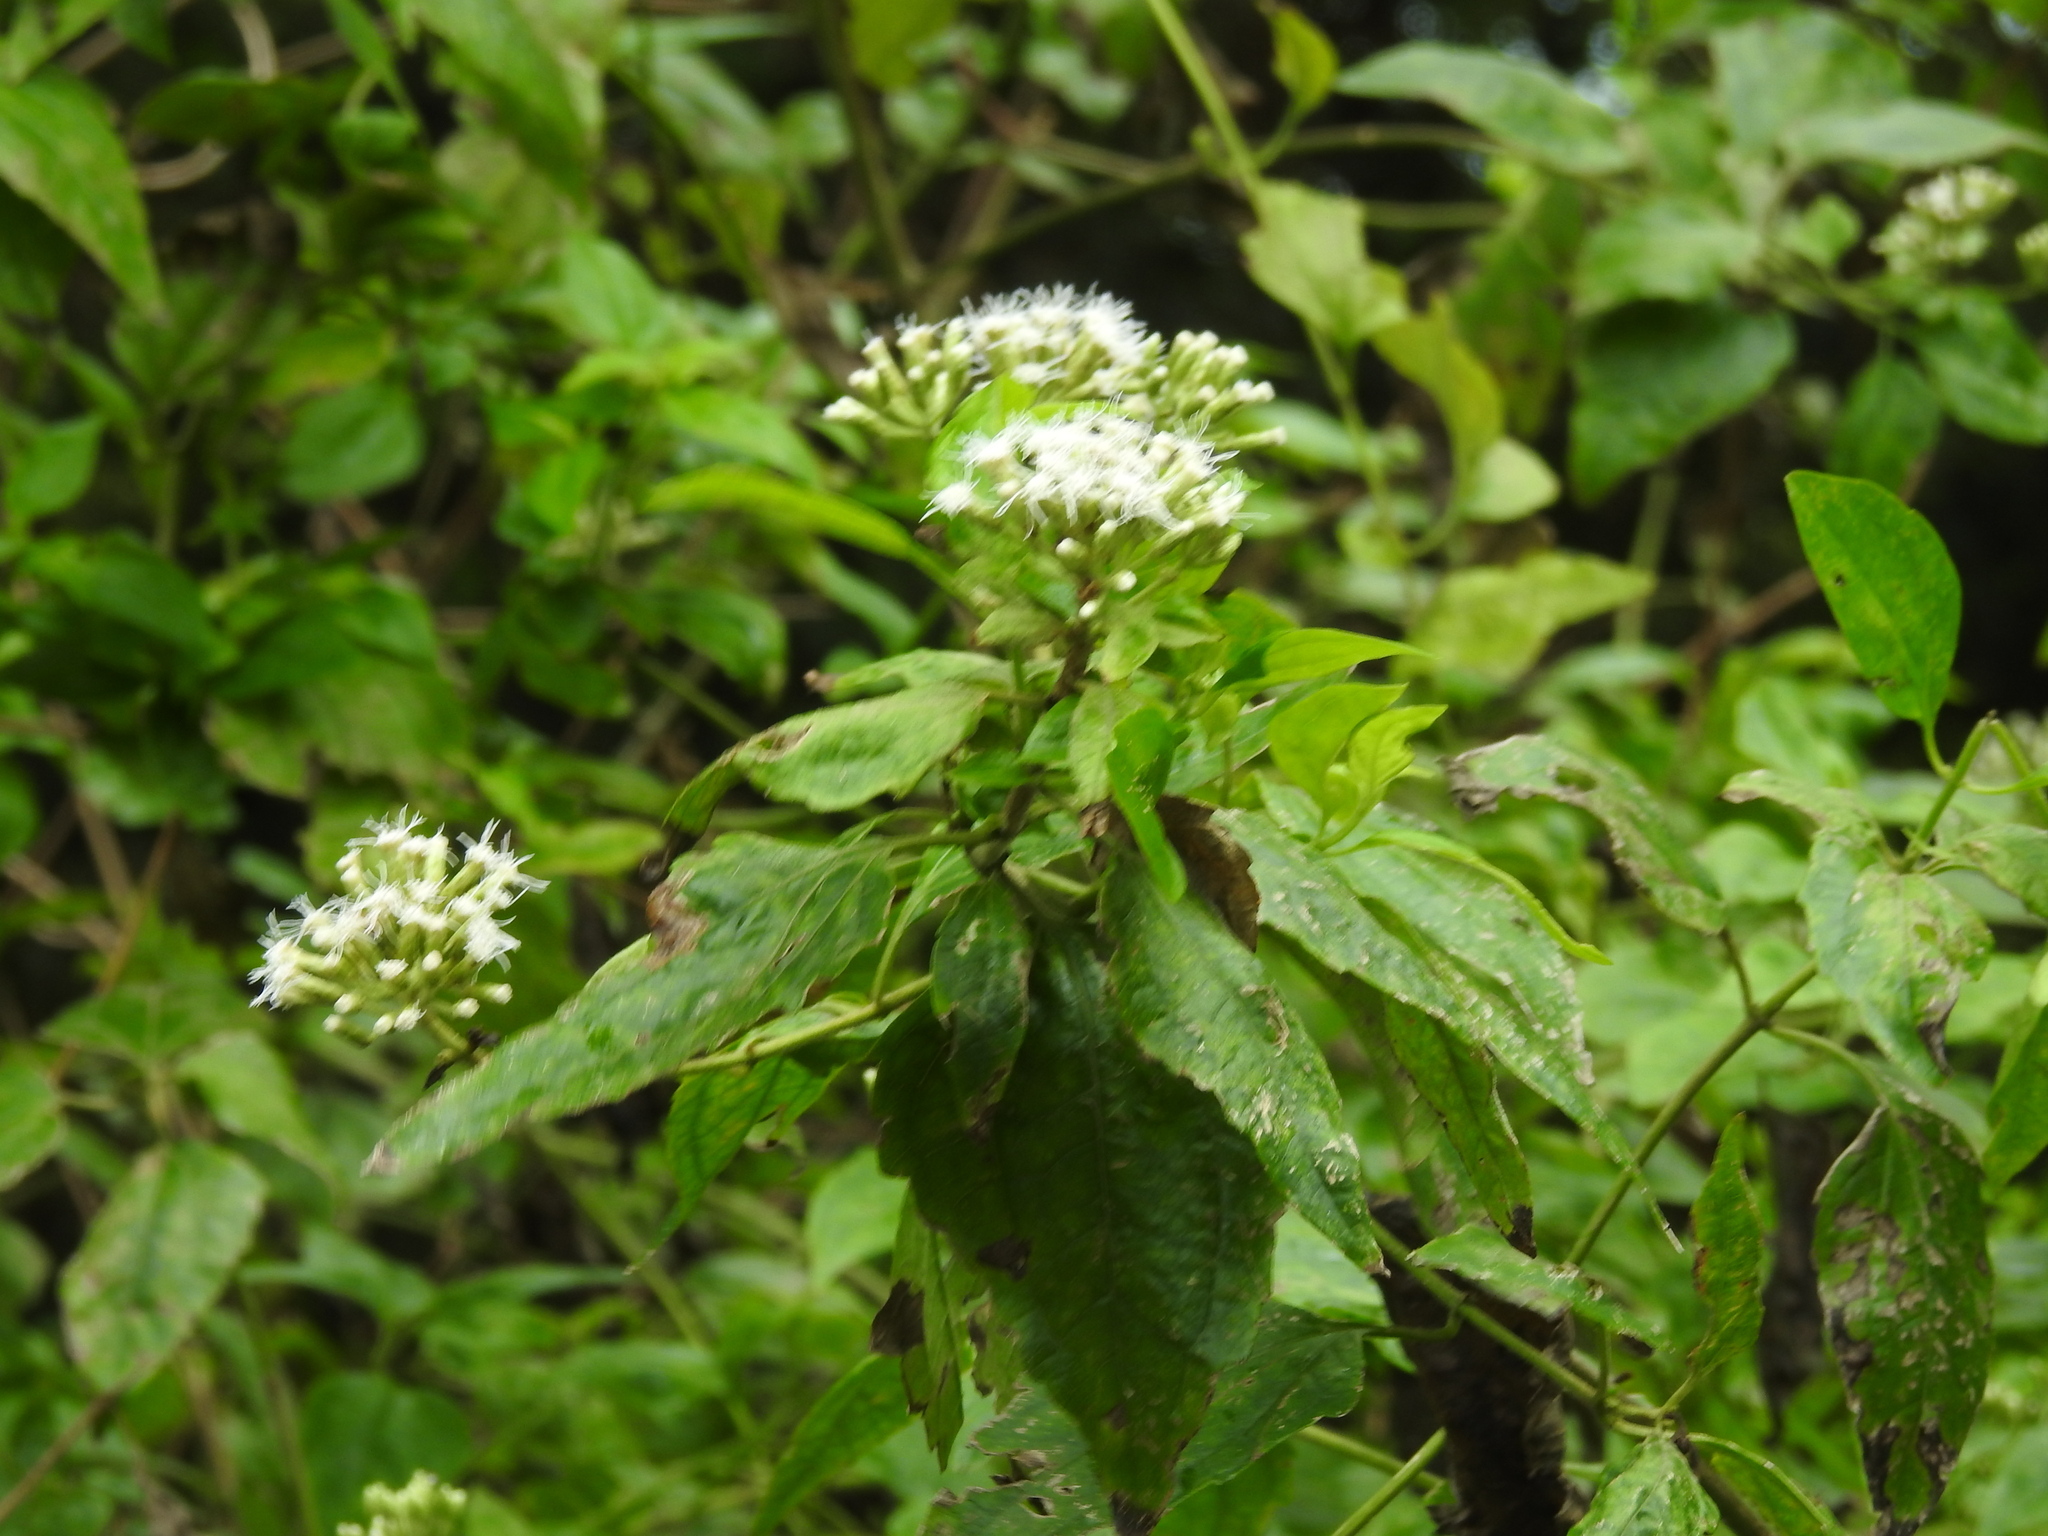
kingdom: Plantae
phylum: Tracheophyta
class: Magnoliopsida
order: Asterales
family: Asteraceae
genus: Chromolaena
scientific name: Chromolaena odorata
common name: Siamweed
